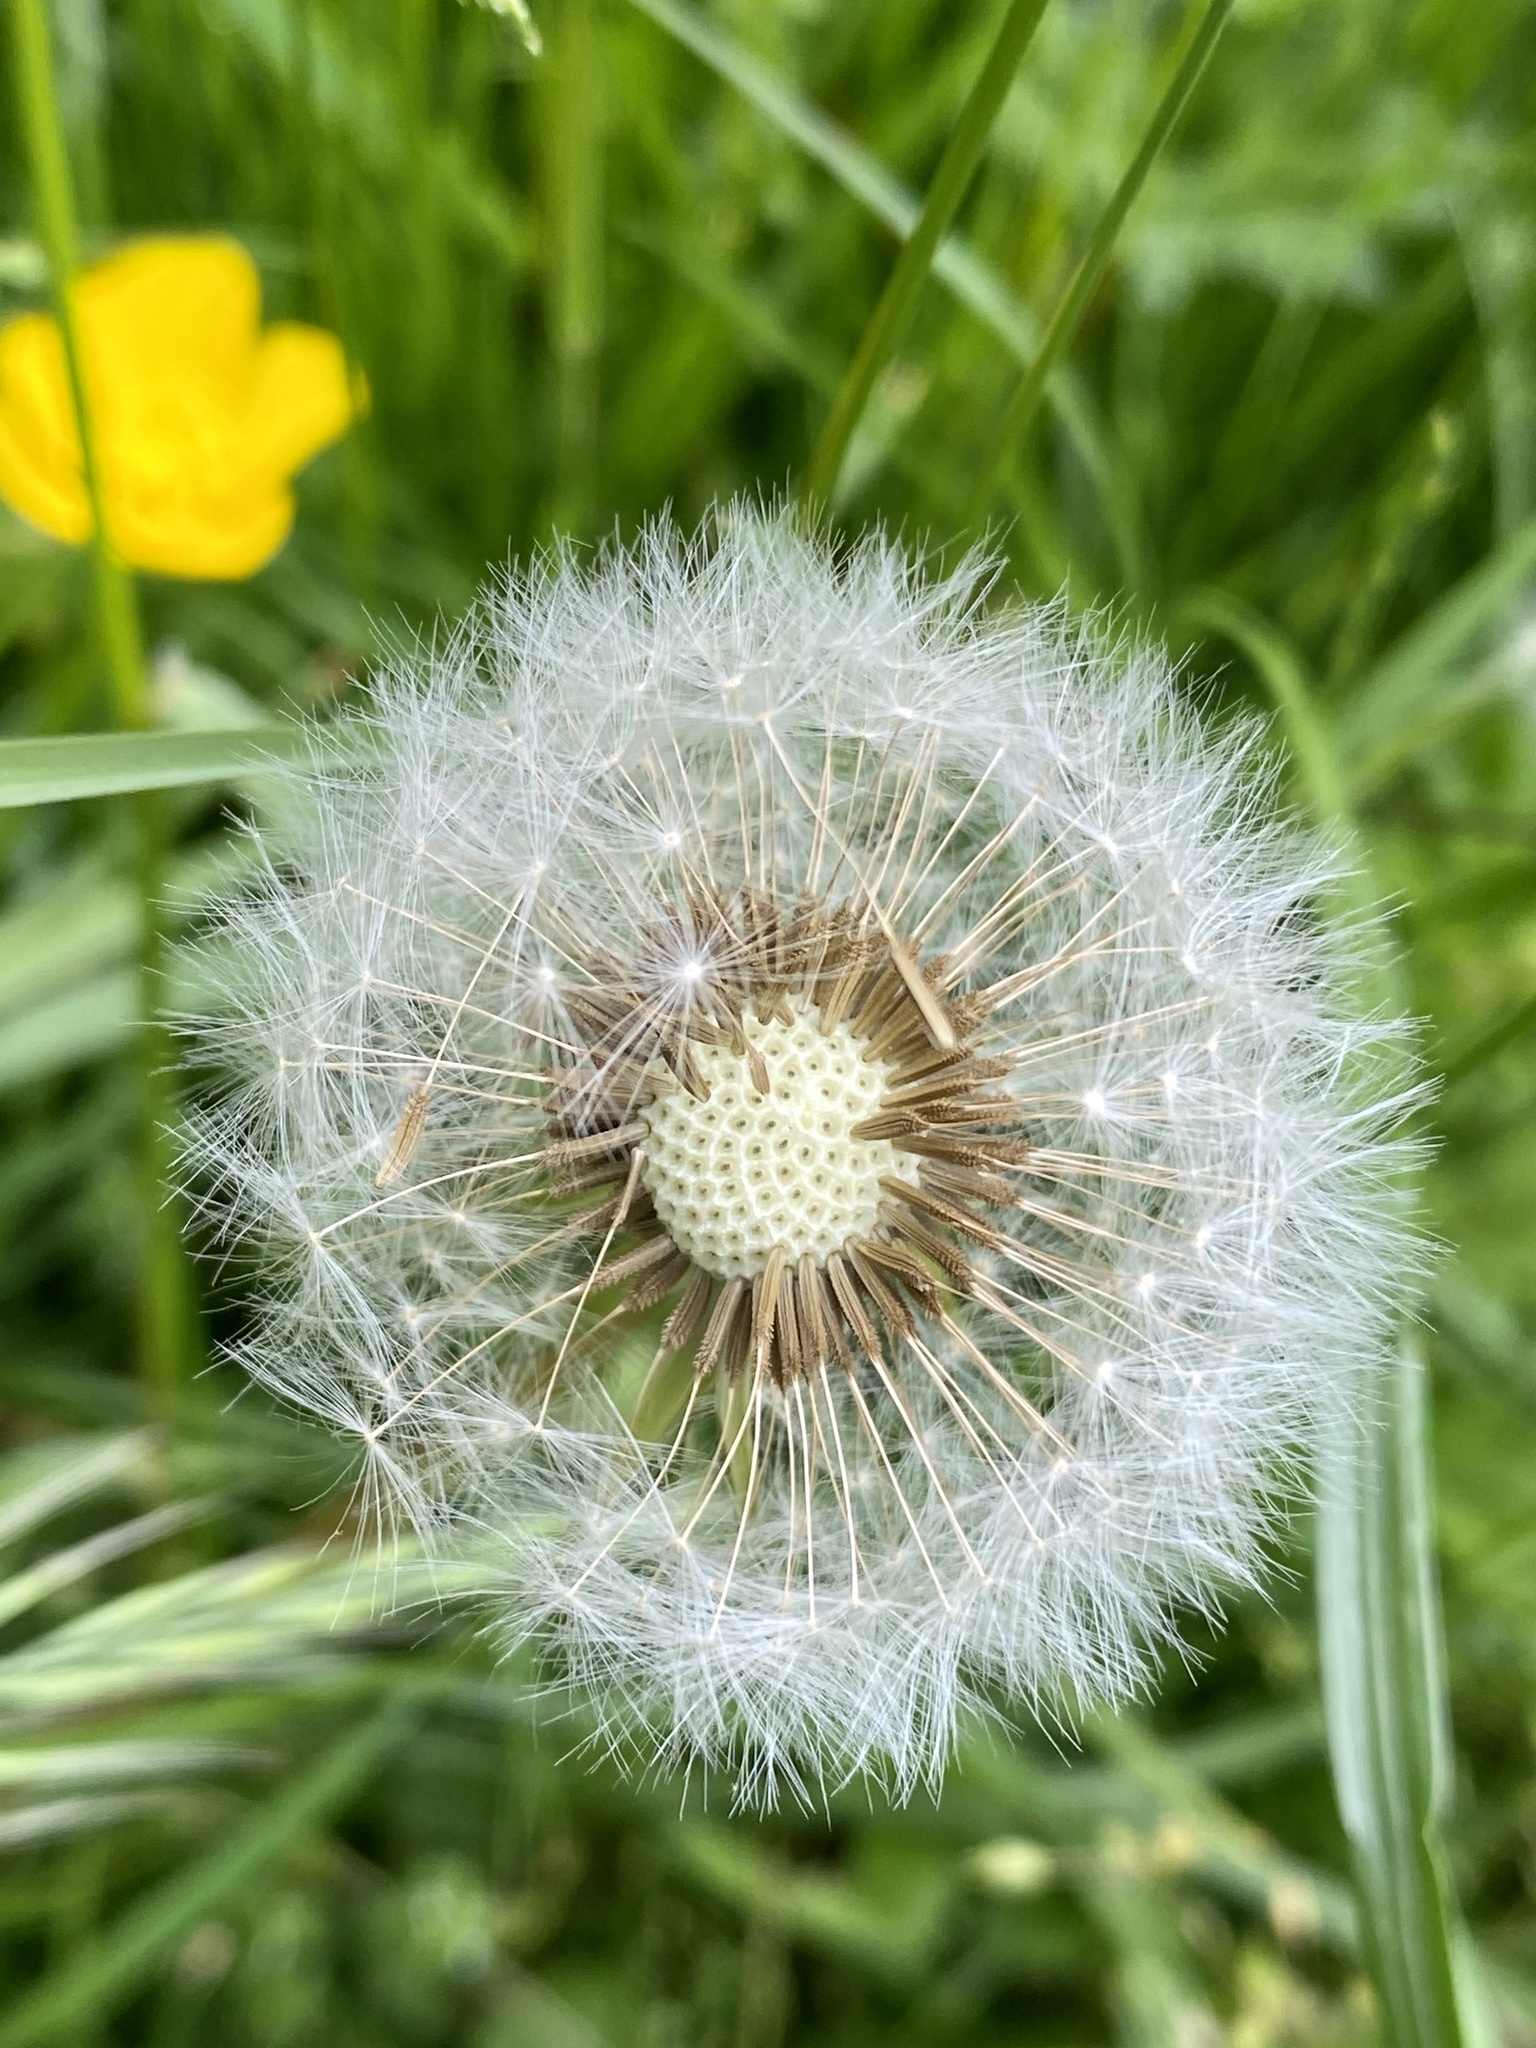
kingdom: Plantae
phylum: Tracheophyta
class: Magnoliopsida
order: Asterales
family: Asteraceae
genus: Taraxacum
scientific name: Taraxacum officinale
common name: Common dandelion
